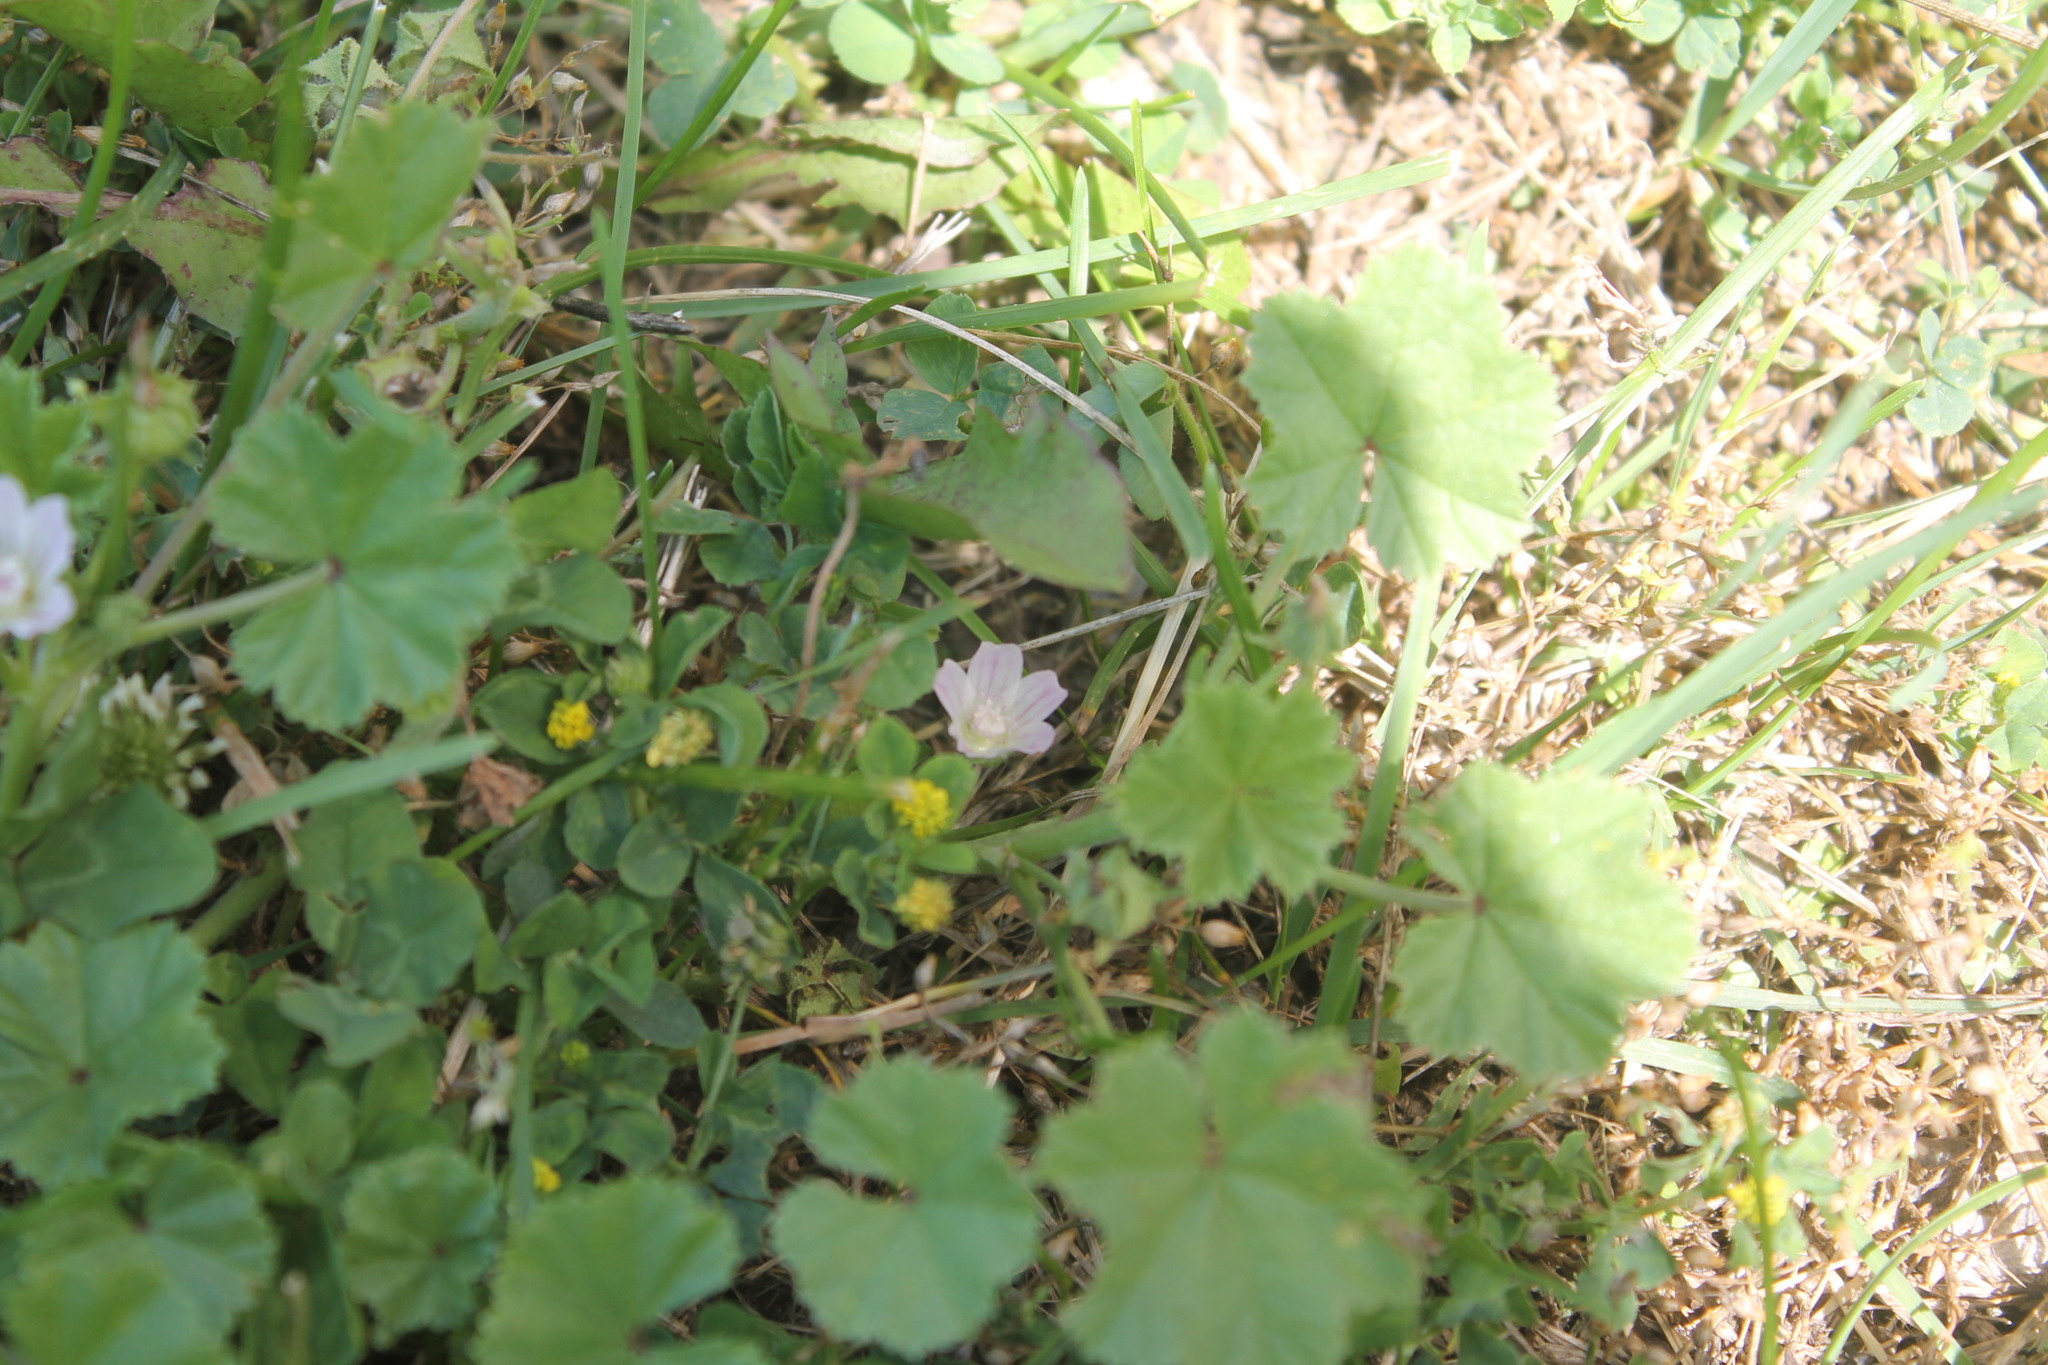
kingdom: Plantae
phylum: Tracheophyta
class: Magnoliopsida
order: Malvales
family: Malvaceae
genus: Malva
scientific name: Malva neglecta
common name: Common mallow
